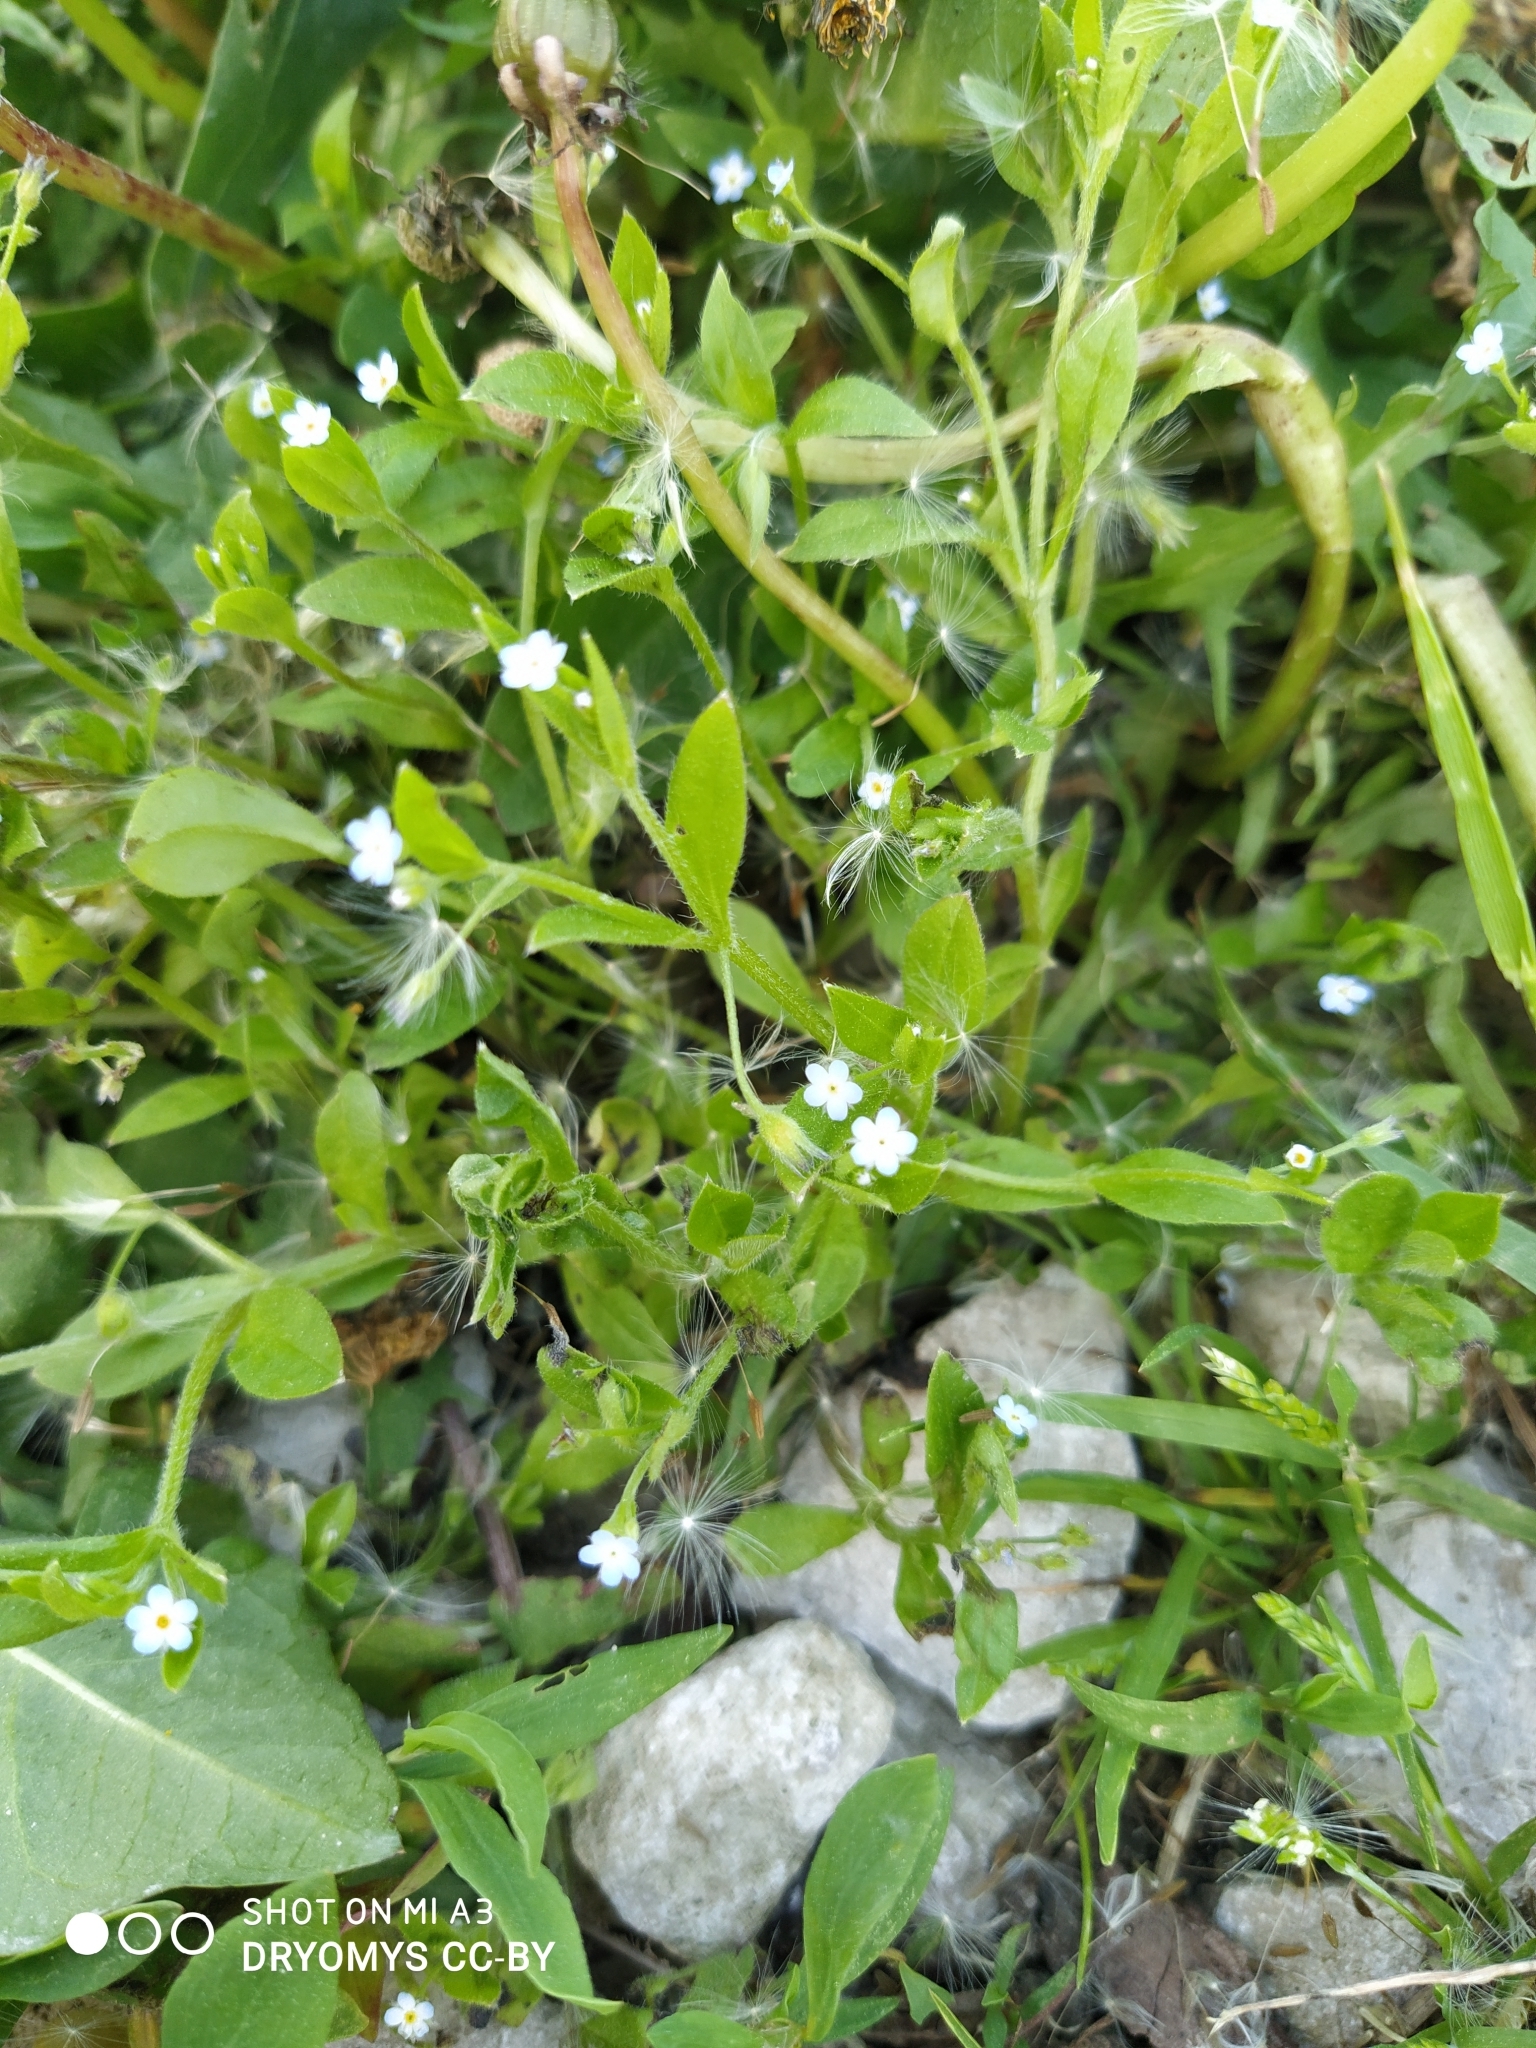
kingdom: Plantae
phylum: Tracheophyta
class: Magnoliopsida
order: Boraginales
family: Boraginaceae
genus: Myosotis
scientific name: Myosotis sparsiflora
